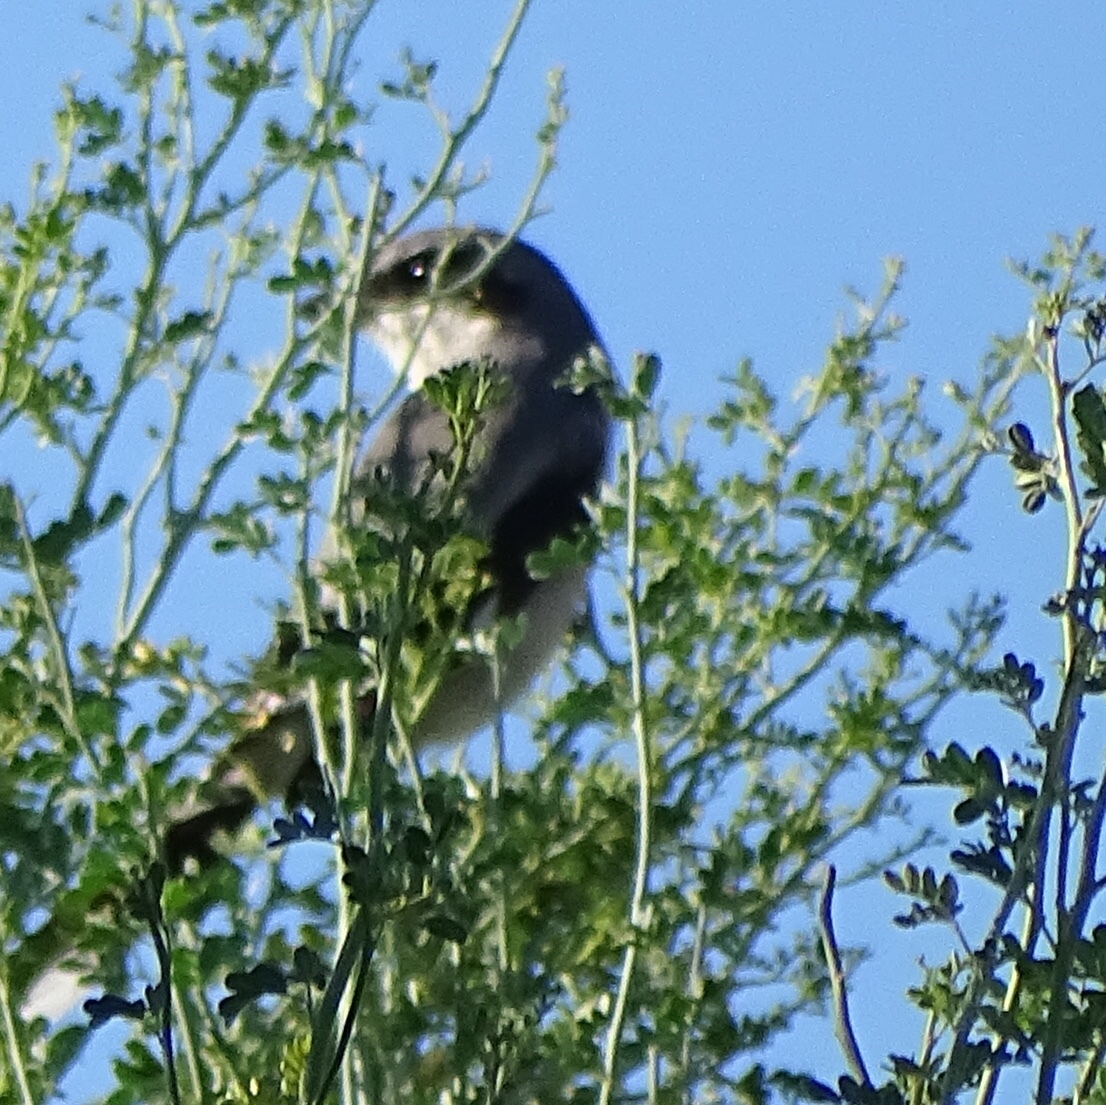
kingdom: Animalia
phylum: Chordata
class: Aves
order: Passeriformes
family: Laniidae
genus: Lanius
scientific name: Lanius ludovicianus
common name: Loggerhead shrike
